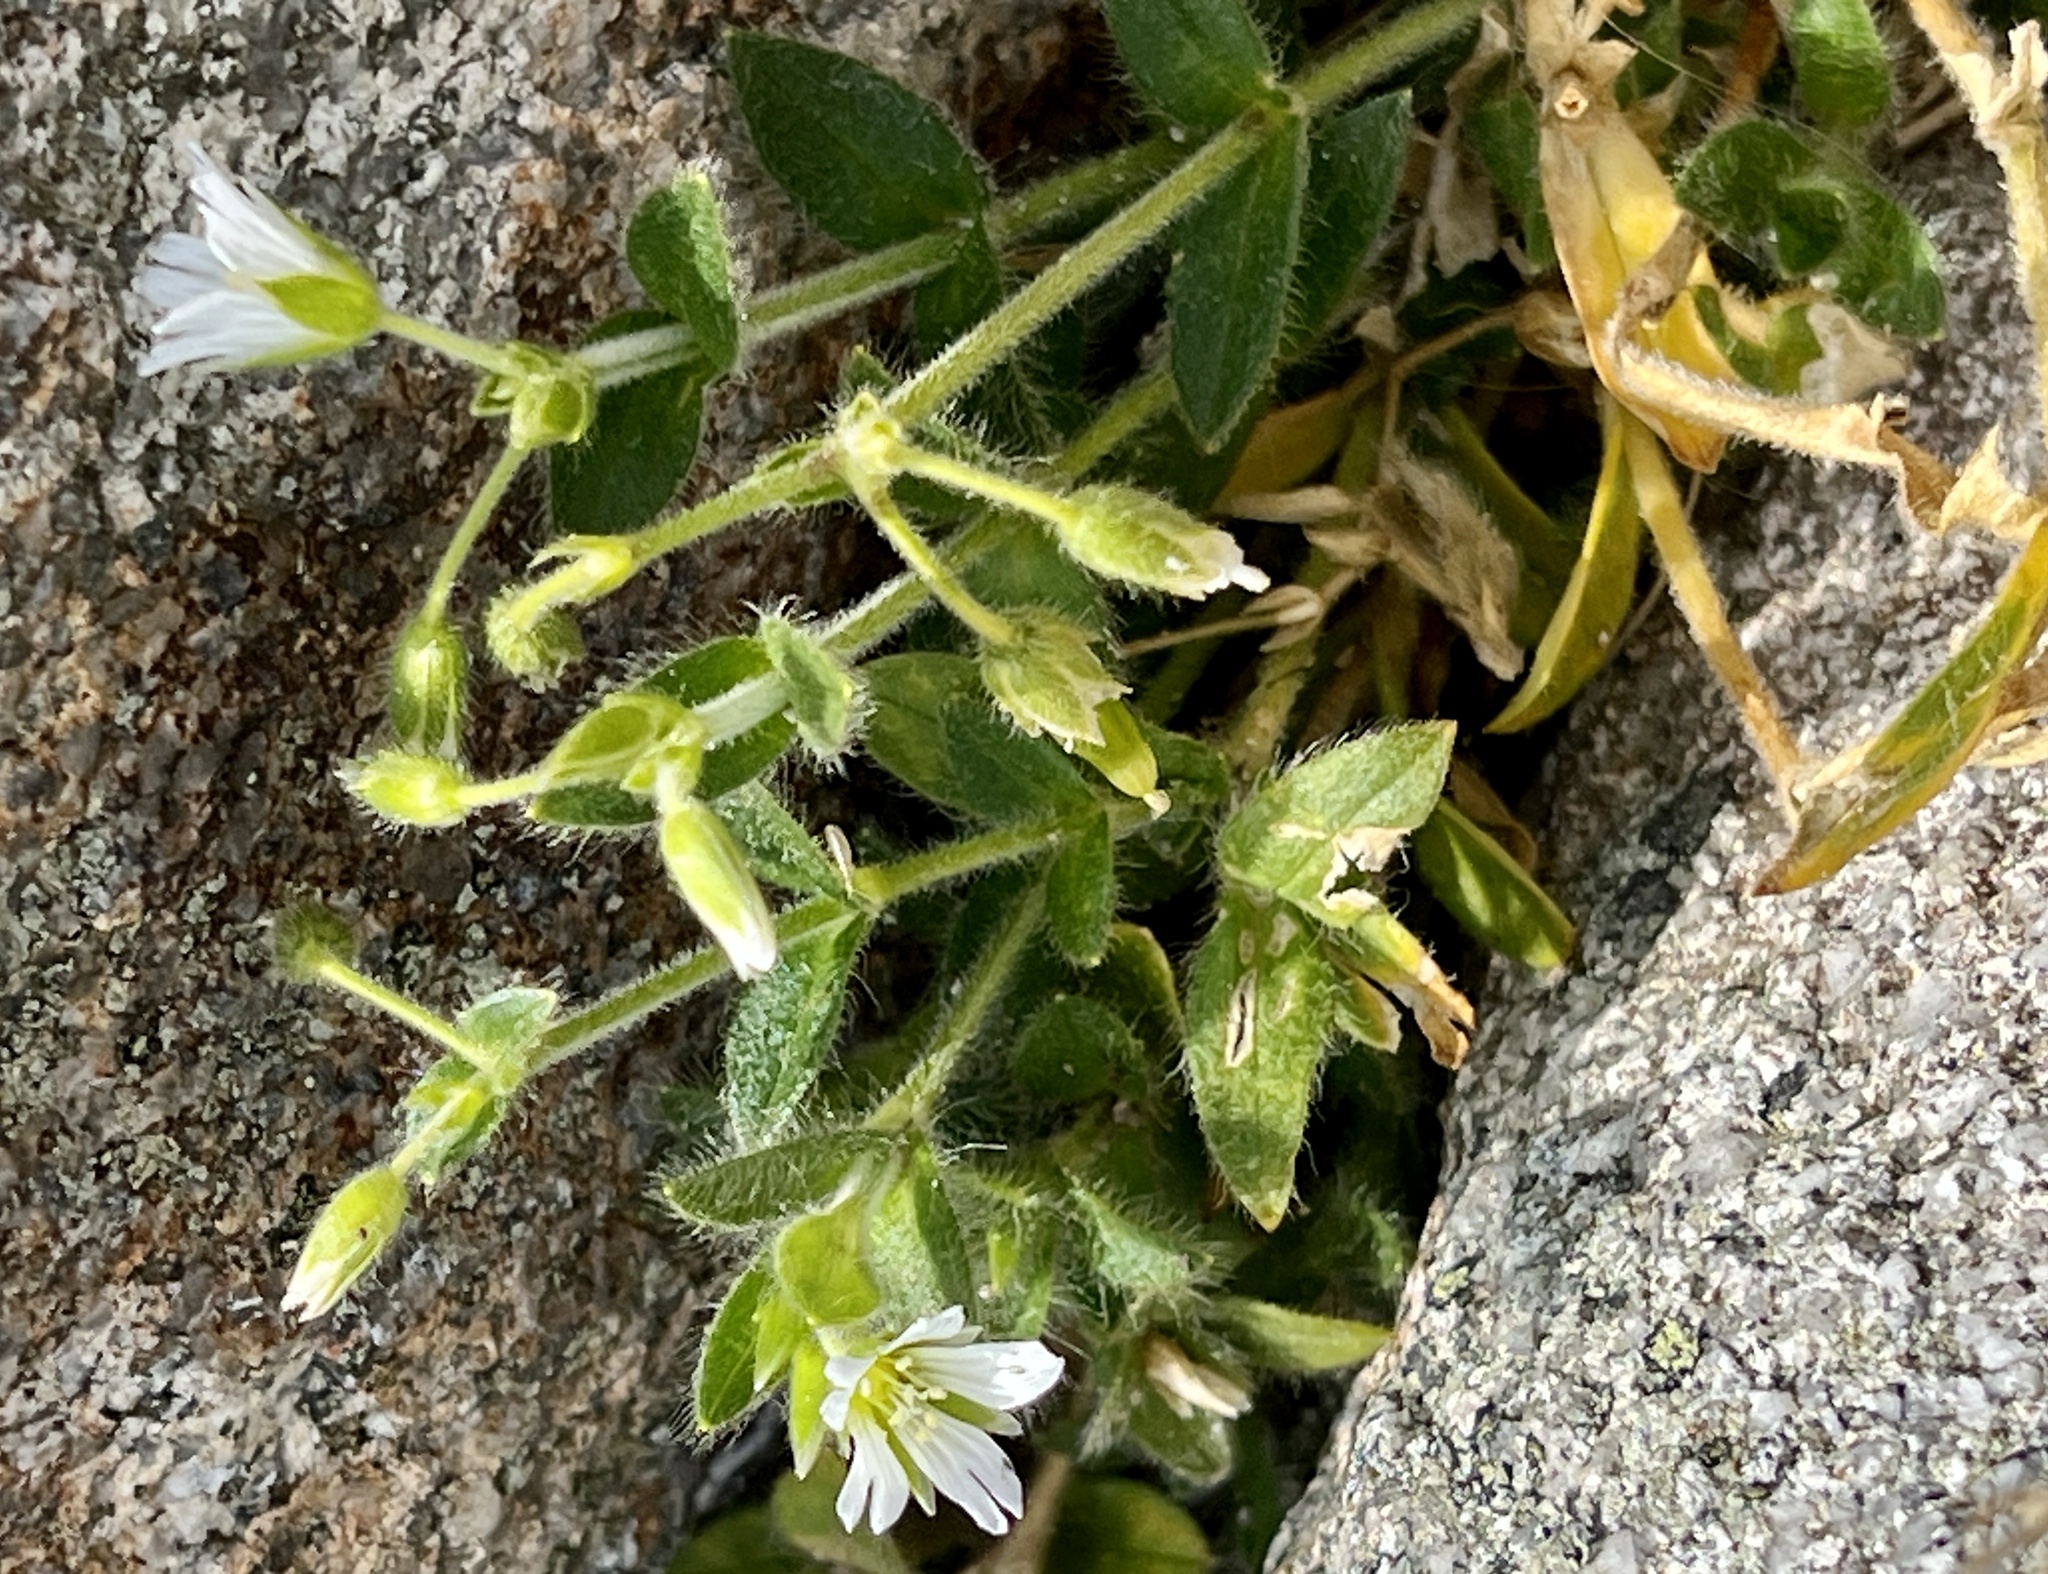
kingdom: Plantae
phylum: Tracheophyta
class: Magnoliopsida
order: Caryophyllales
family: Caryophyllaceae
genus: Cerastium
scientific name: Cerastium fontanum
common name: Common mouse-ear
